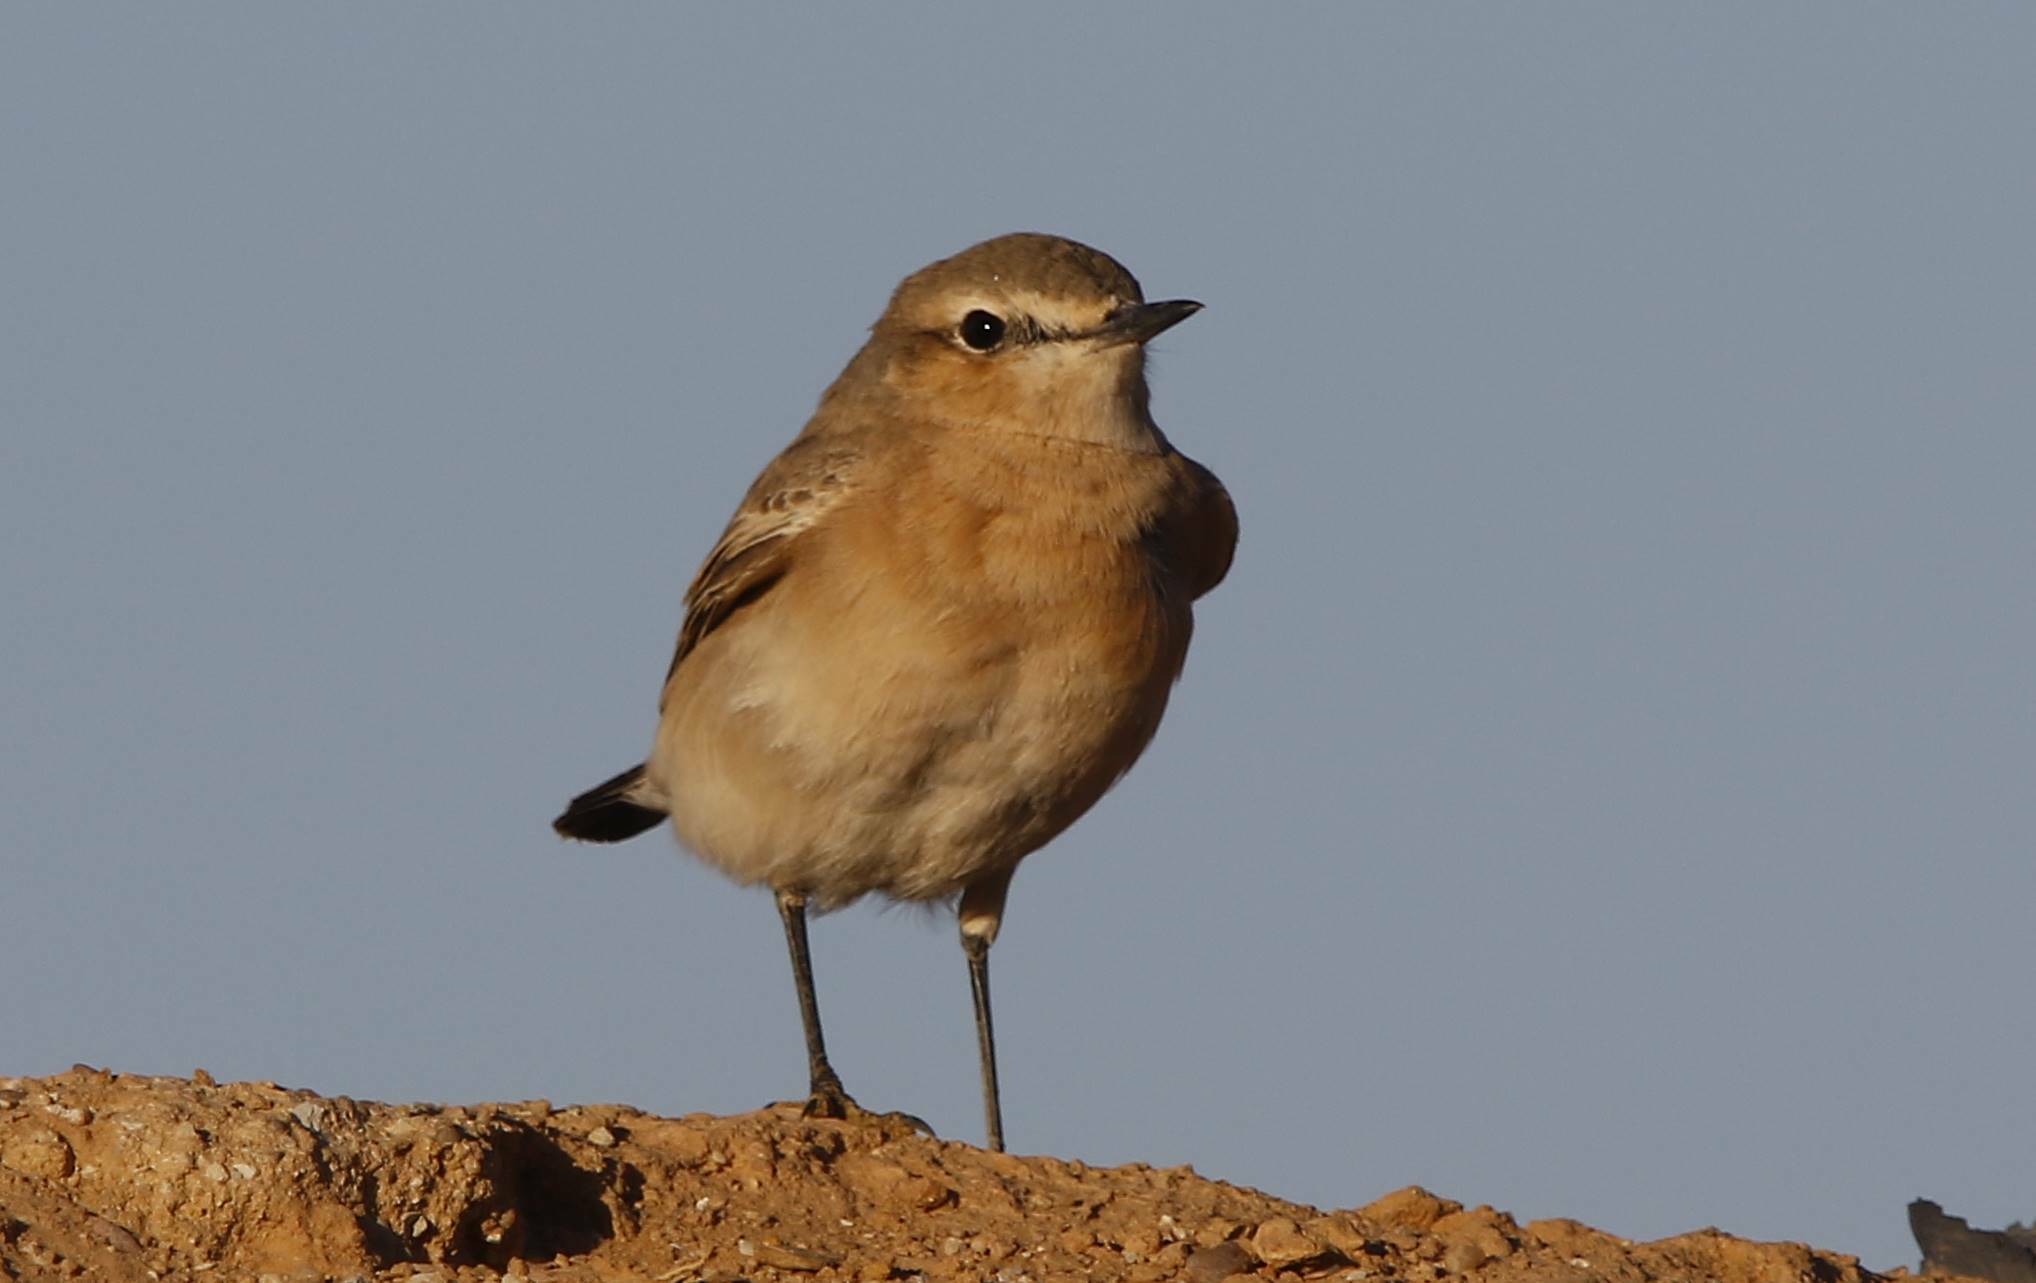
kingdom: Animalia
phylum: Chordata
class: Aves
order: Passeriformes
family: Muscicapidae
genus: Oenanthe
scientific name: Oenanthe isabellina
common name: Isabelline wheatear
